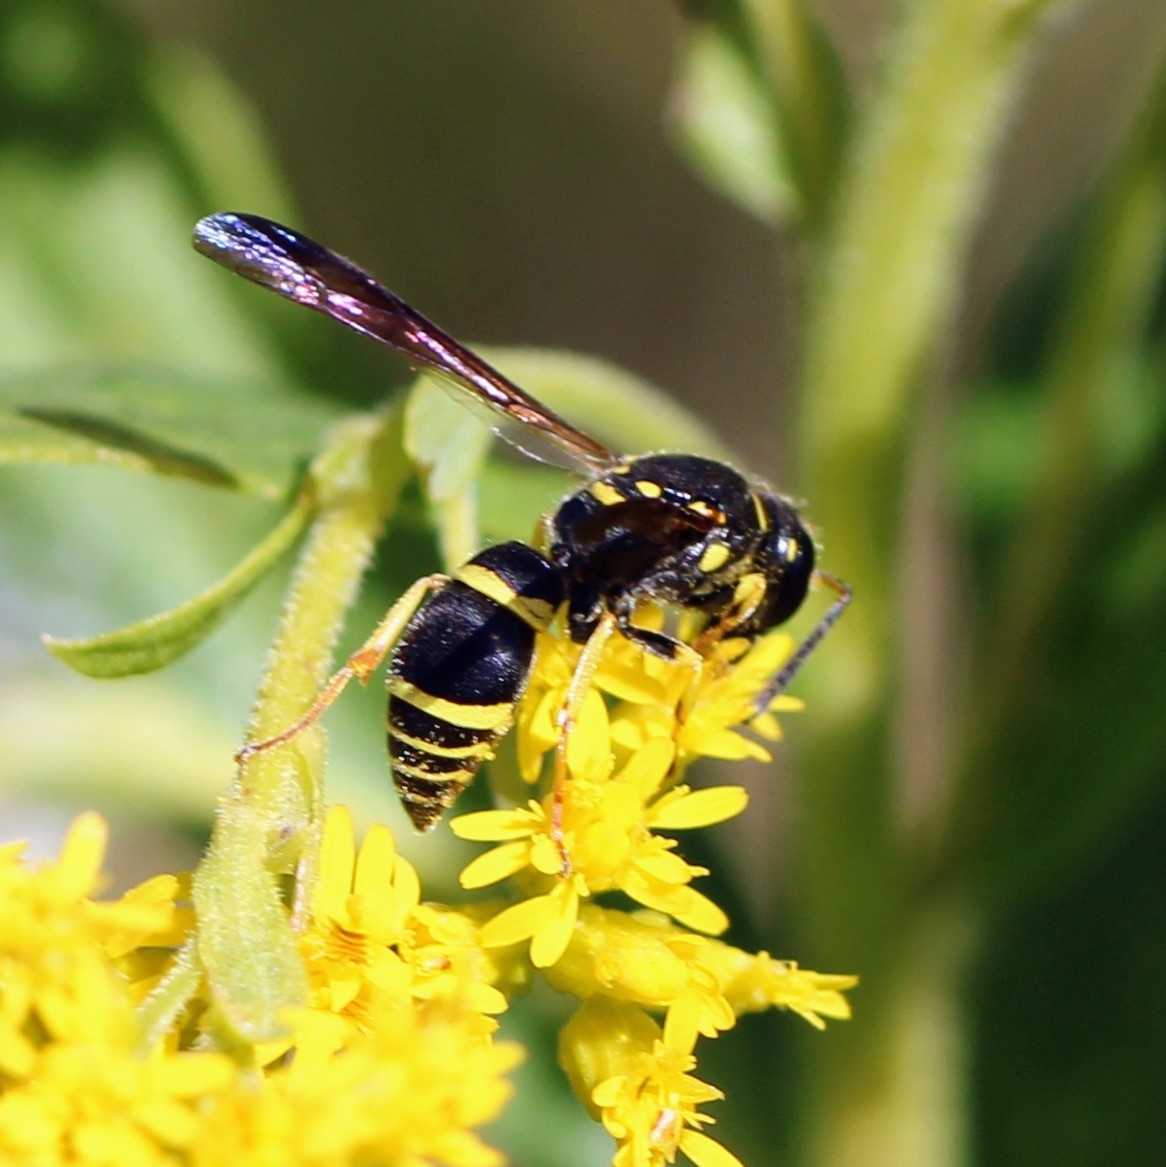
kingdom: Animalia
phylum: Arthropoda
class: Insecta
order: Hymenoptera
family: Vespidae
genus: Ancistrocerus
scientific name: Ancistrocerus adiabatus
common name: Bramble mason wasp
